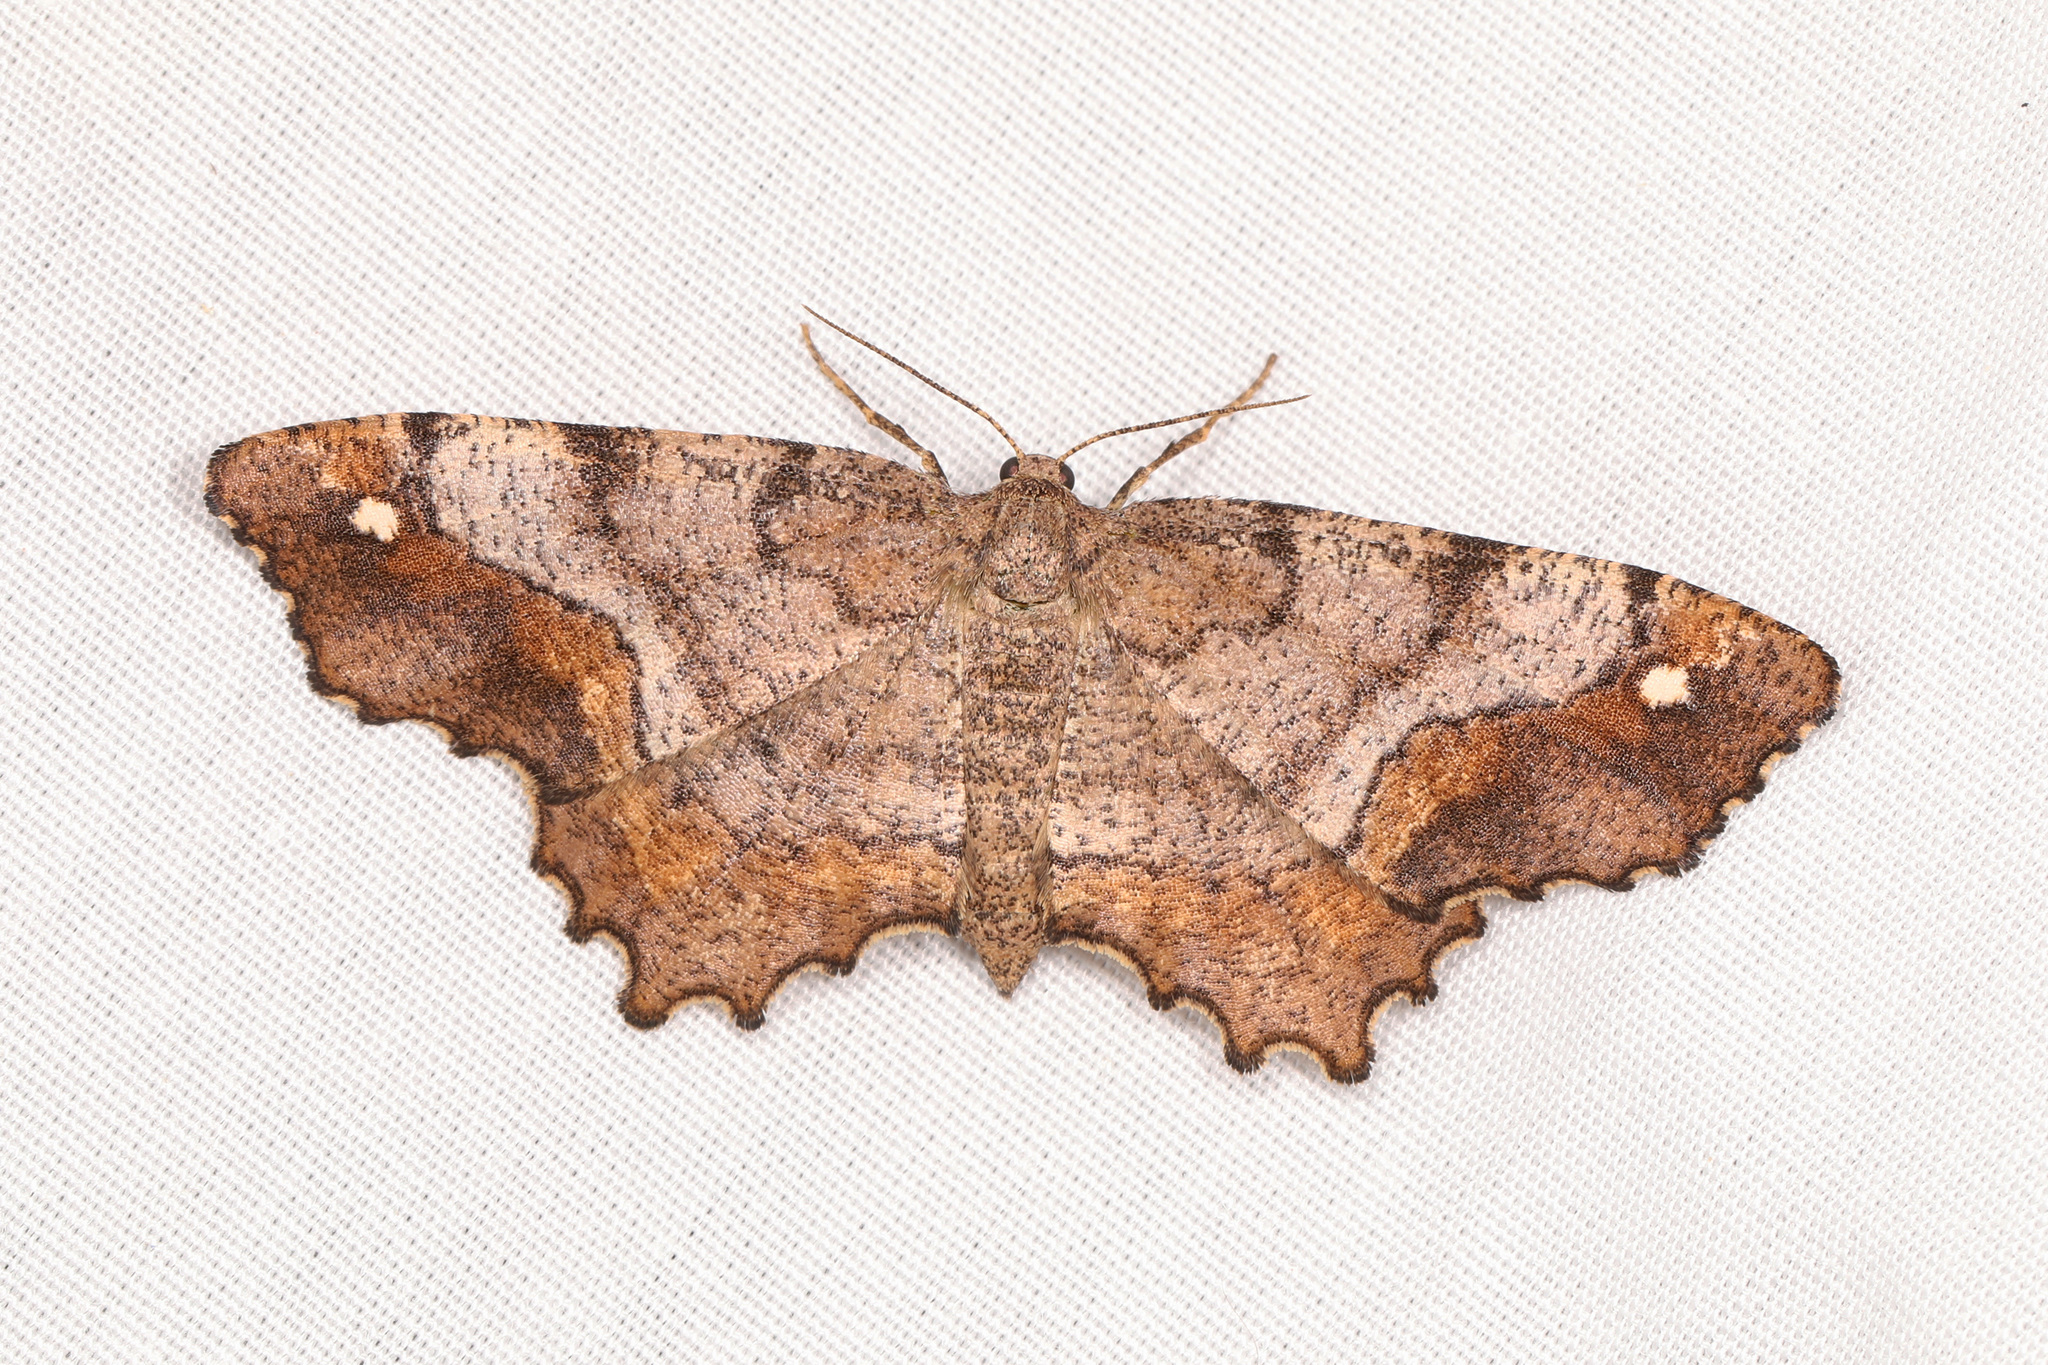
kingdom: Animalia
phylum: Arthropoda
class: Insecta
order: Lepidoptera
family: Geometridae
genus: Hypagyrtis
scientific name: Hypagyrtis unipunctata
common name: One-spotted variant
